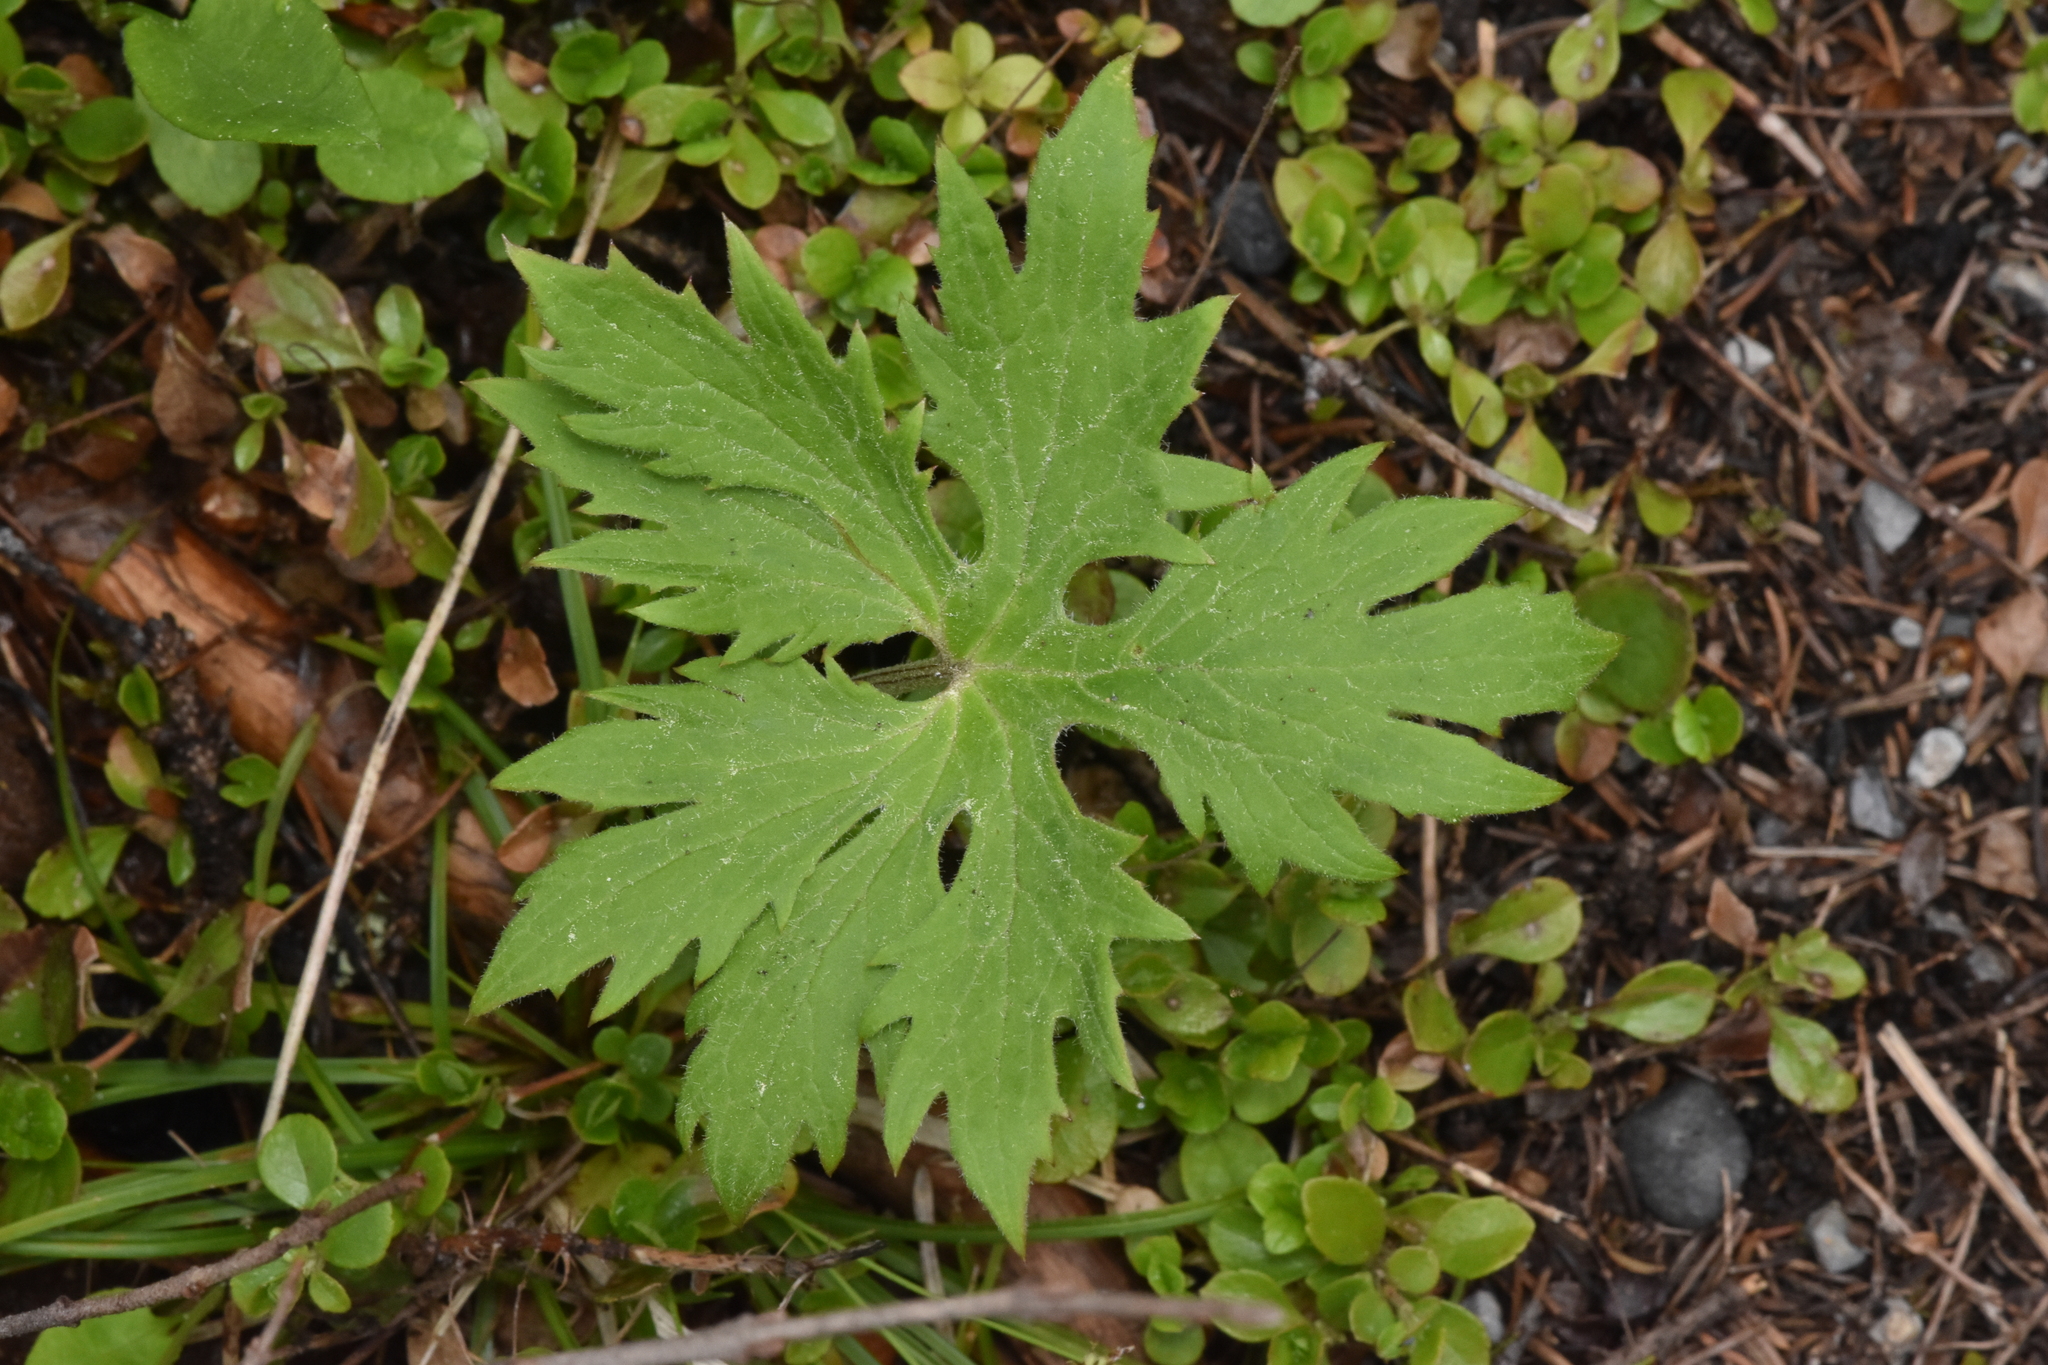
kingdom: Plantae
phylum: Tracheophyta
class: Magnoliopsida
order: Asterales
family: Asteraceae
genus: Petasites
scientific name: Petasites frigidus
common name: Arctic butterbur
